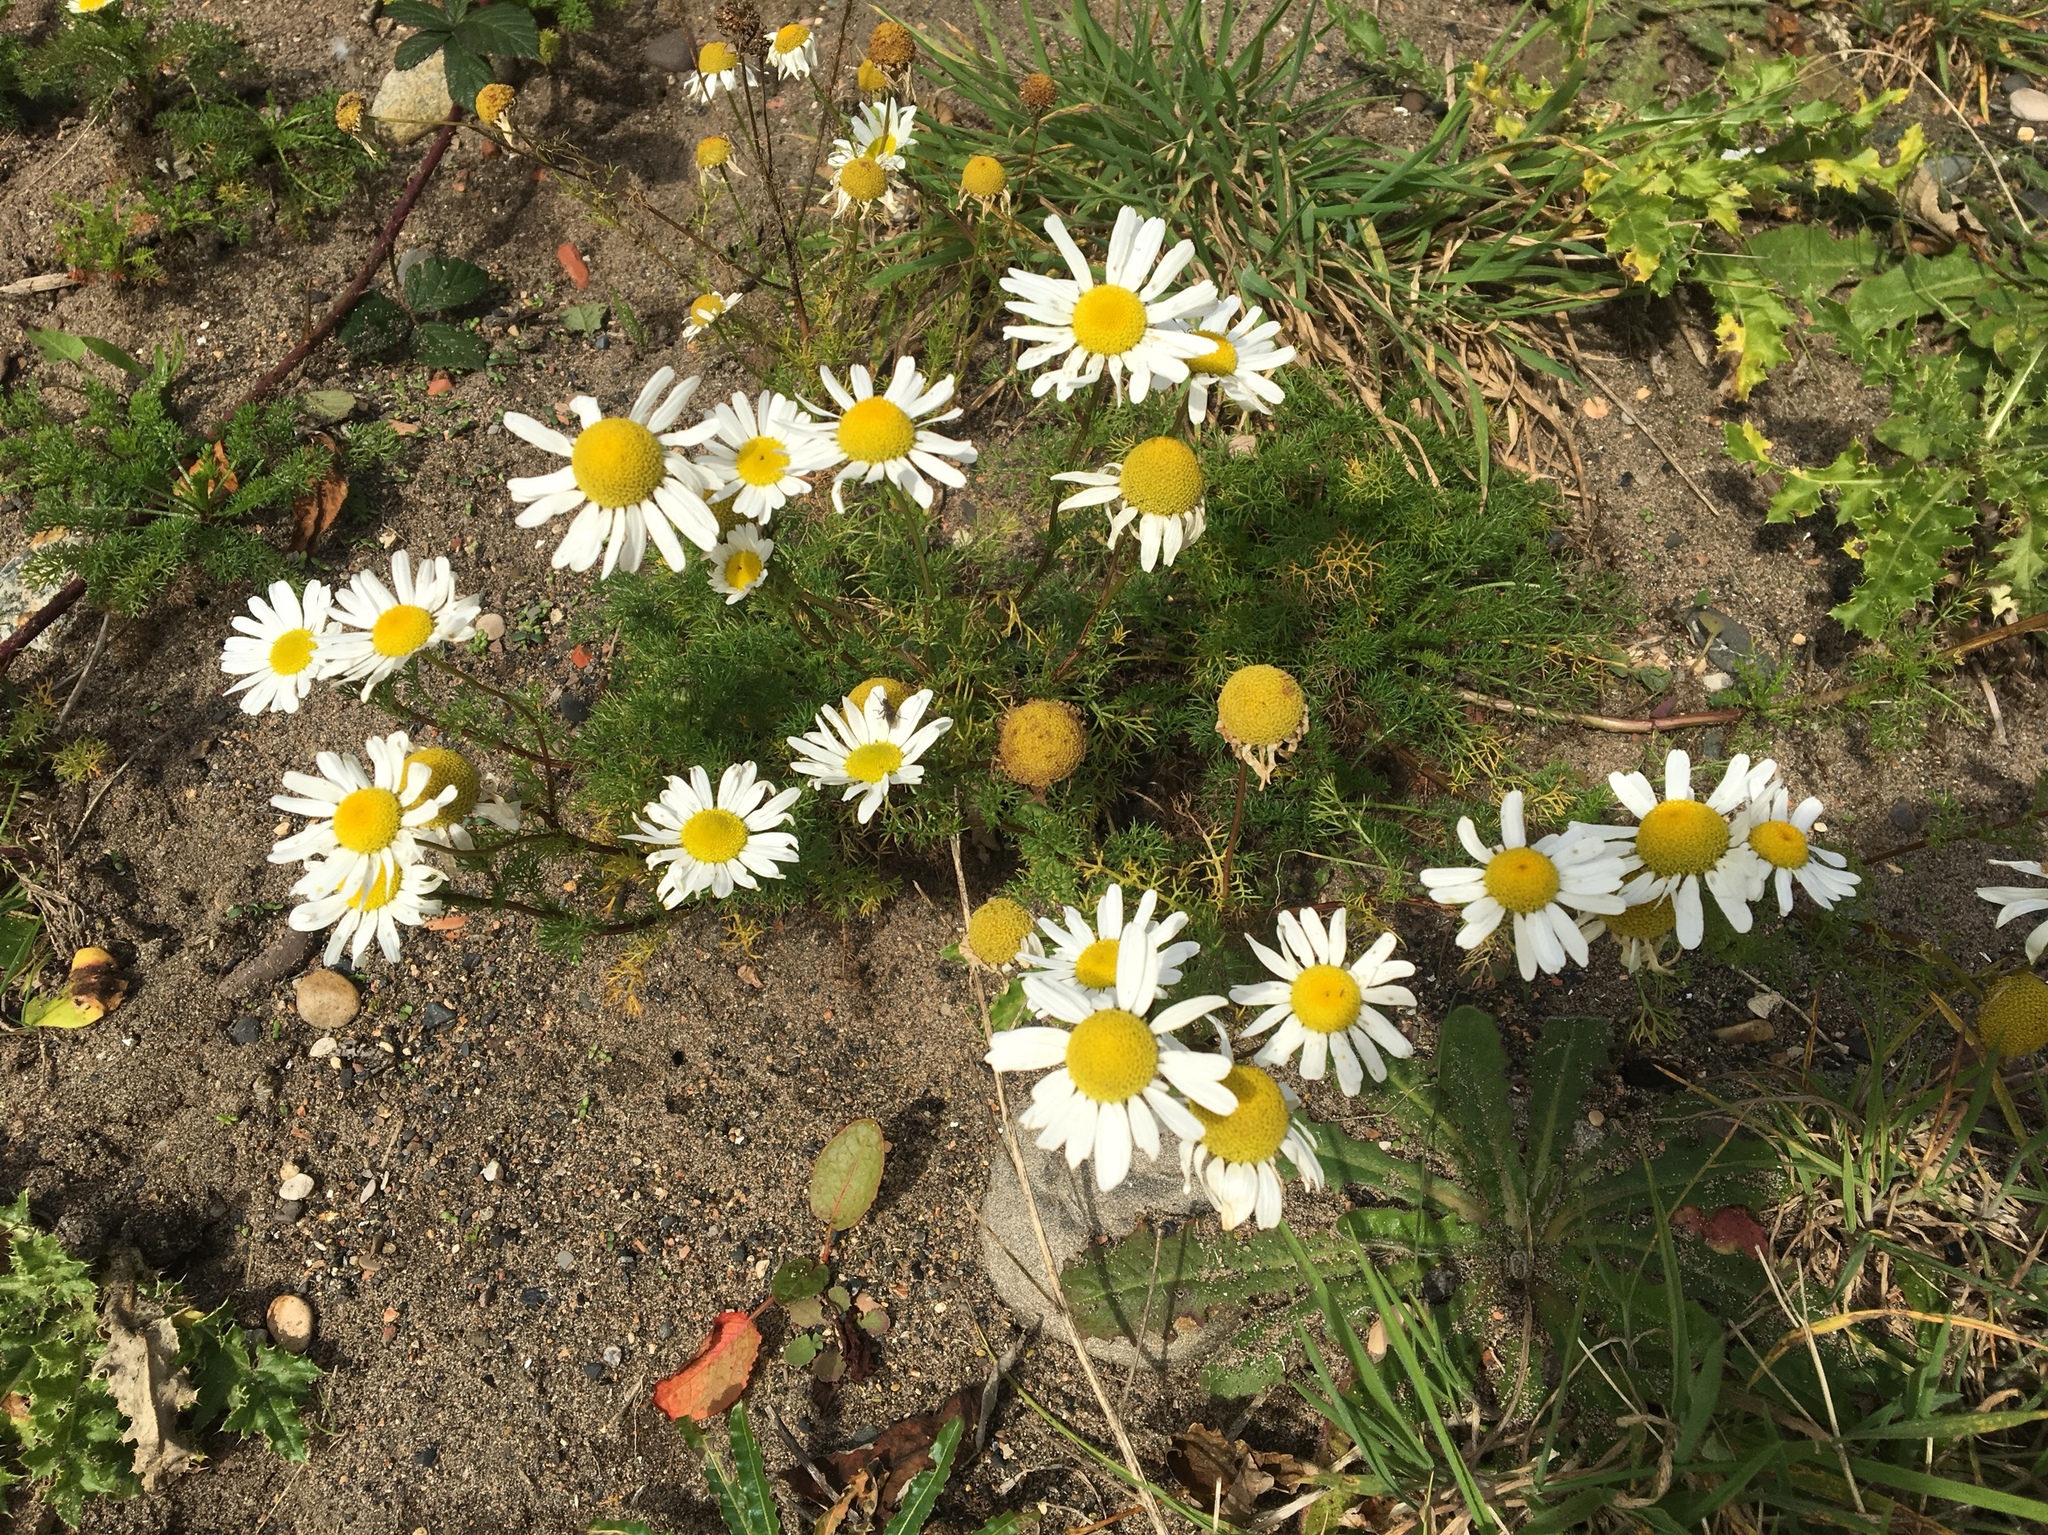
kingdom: Plantae
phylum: Tracheophyta
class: Magnoliopsida
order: Asterales
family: Asteraceae
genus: Tripleurospermum
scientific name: Tripleurospermum maritimum
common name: Sea mayweed
